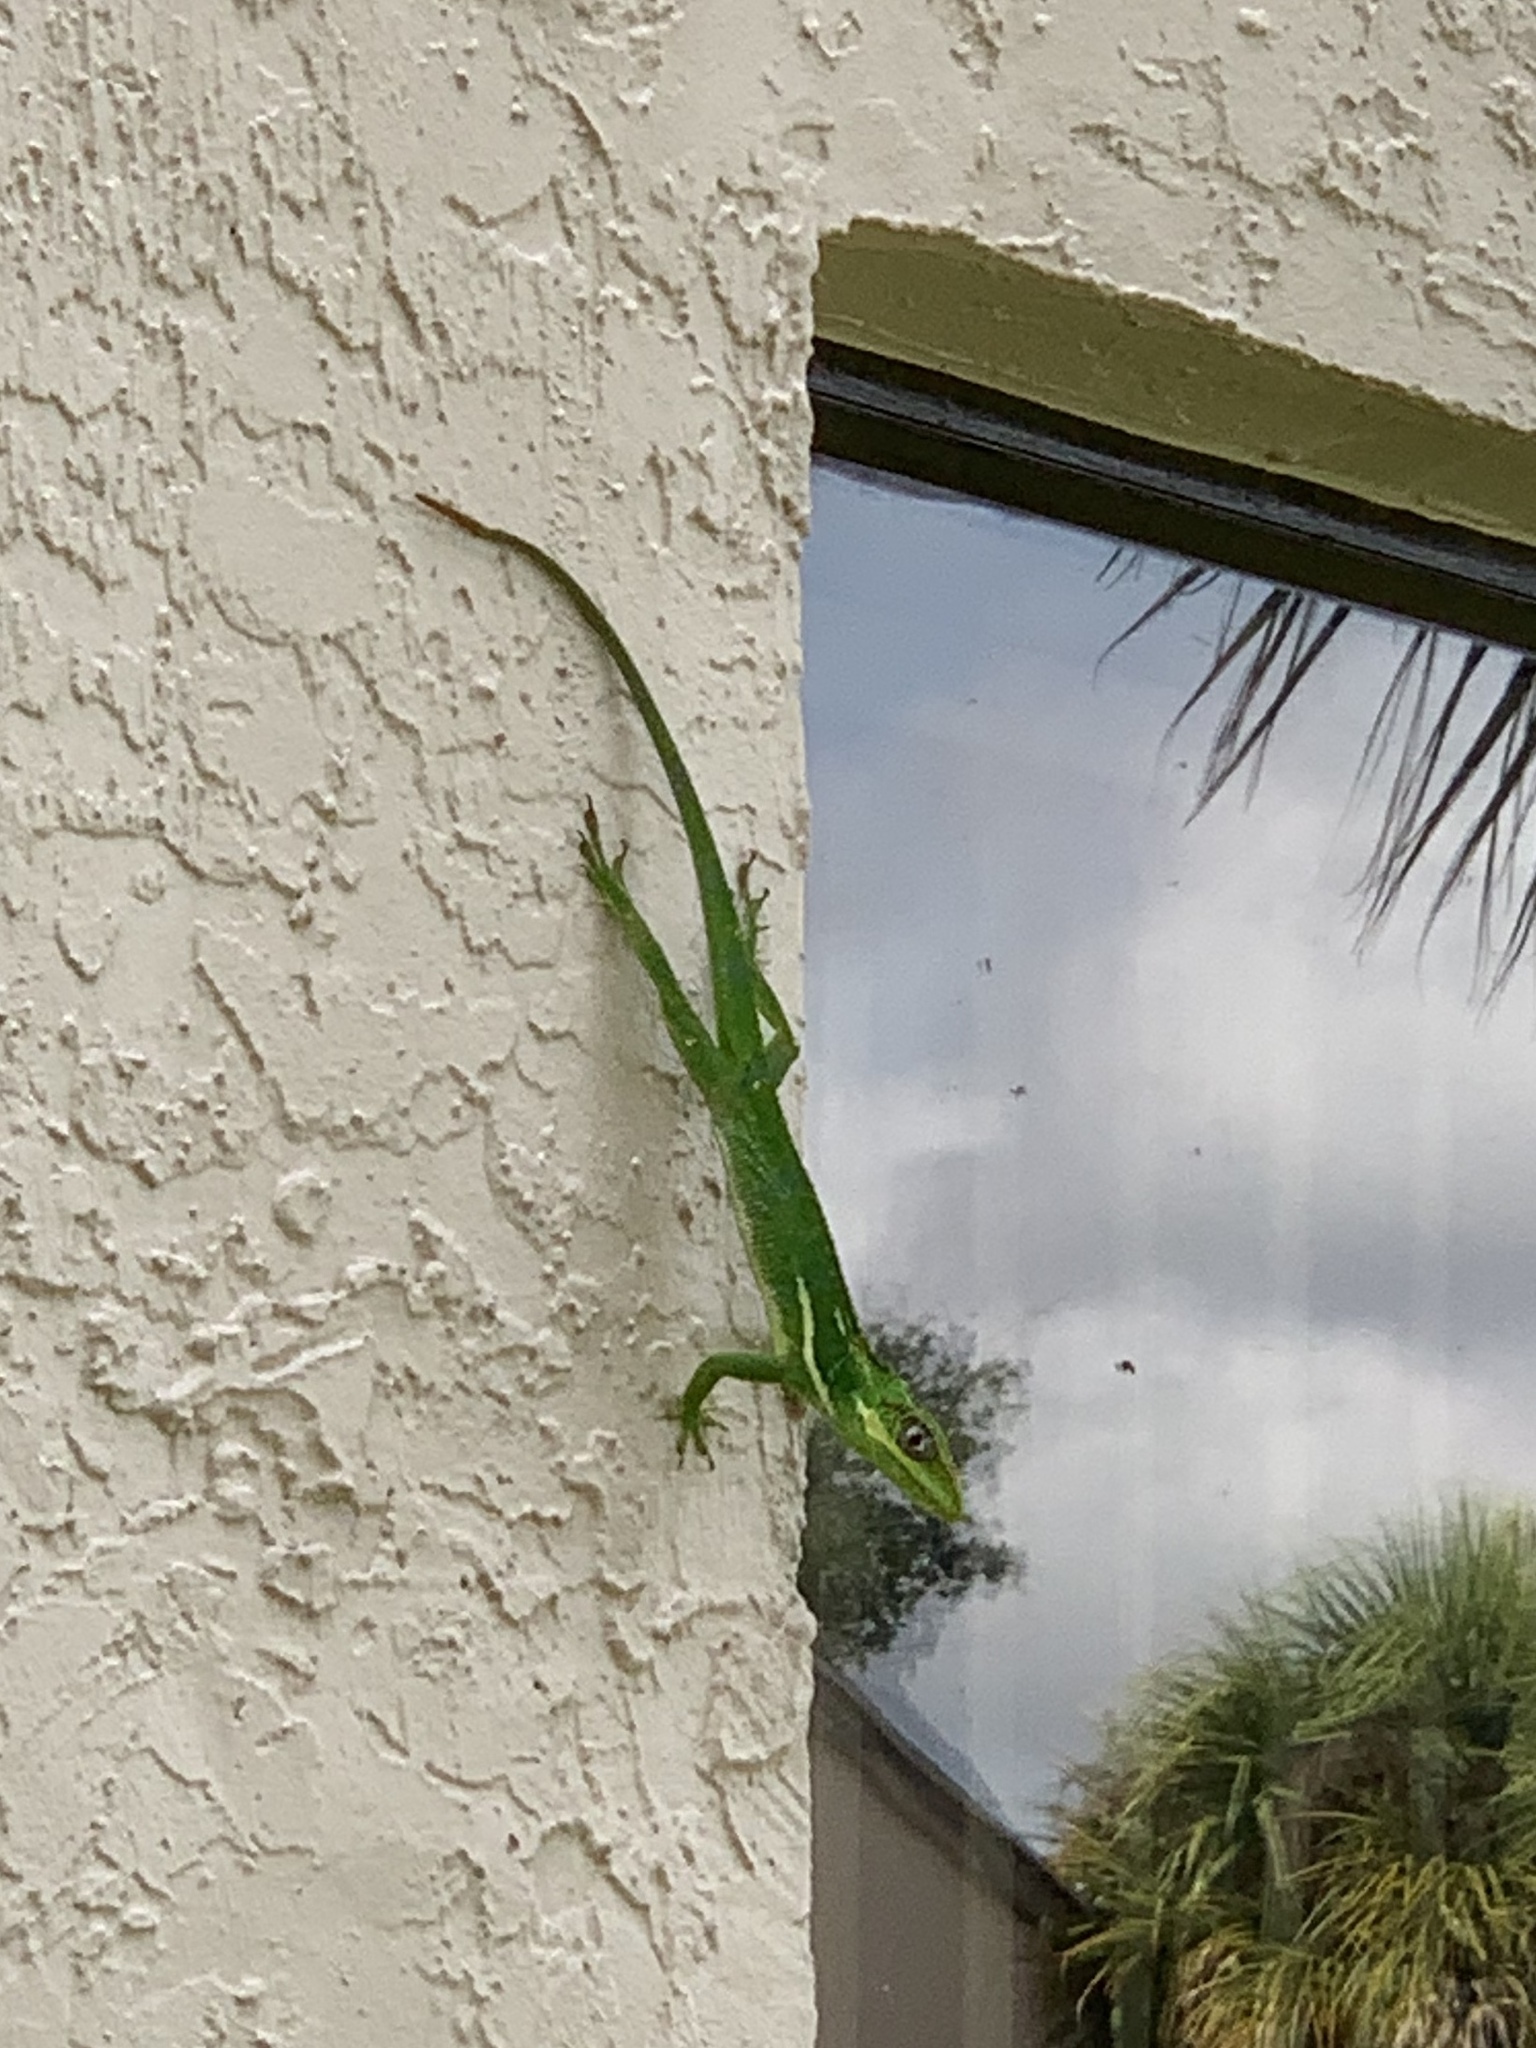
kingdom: Animalia
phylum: Chordata
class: Squamata
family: Dactyloidae
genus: Anolis
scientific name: Anolis equestris
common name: Knight anole
